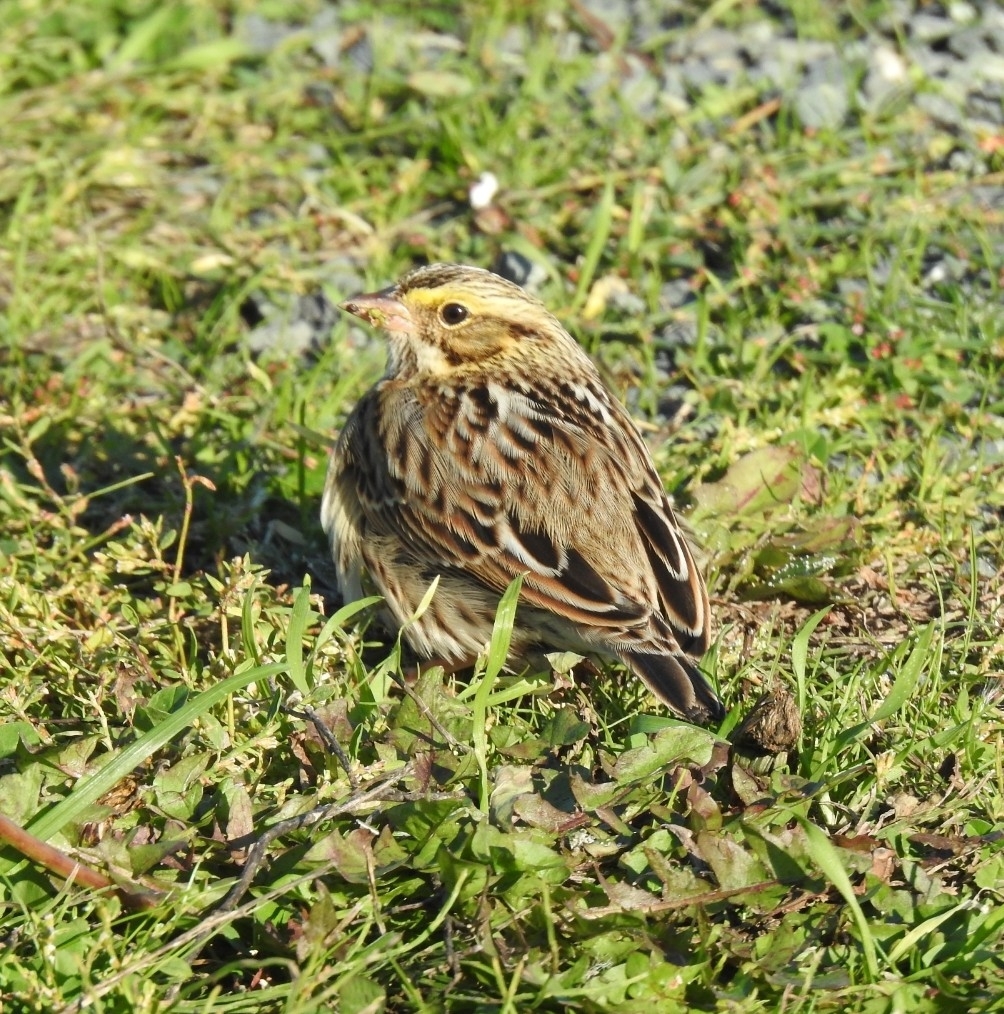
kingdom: Animalia
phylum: Chordata
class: Aves
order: Passeriformes
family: Passerellidae
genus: Passerculus
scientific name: Passerculus sandwichensis
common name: Savannah sparrow
